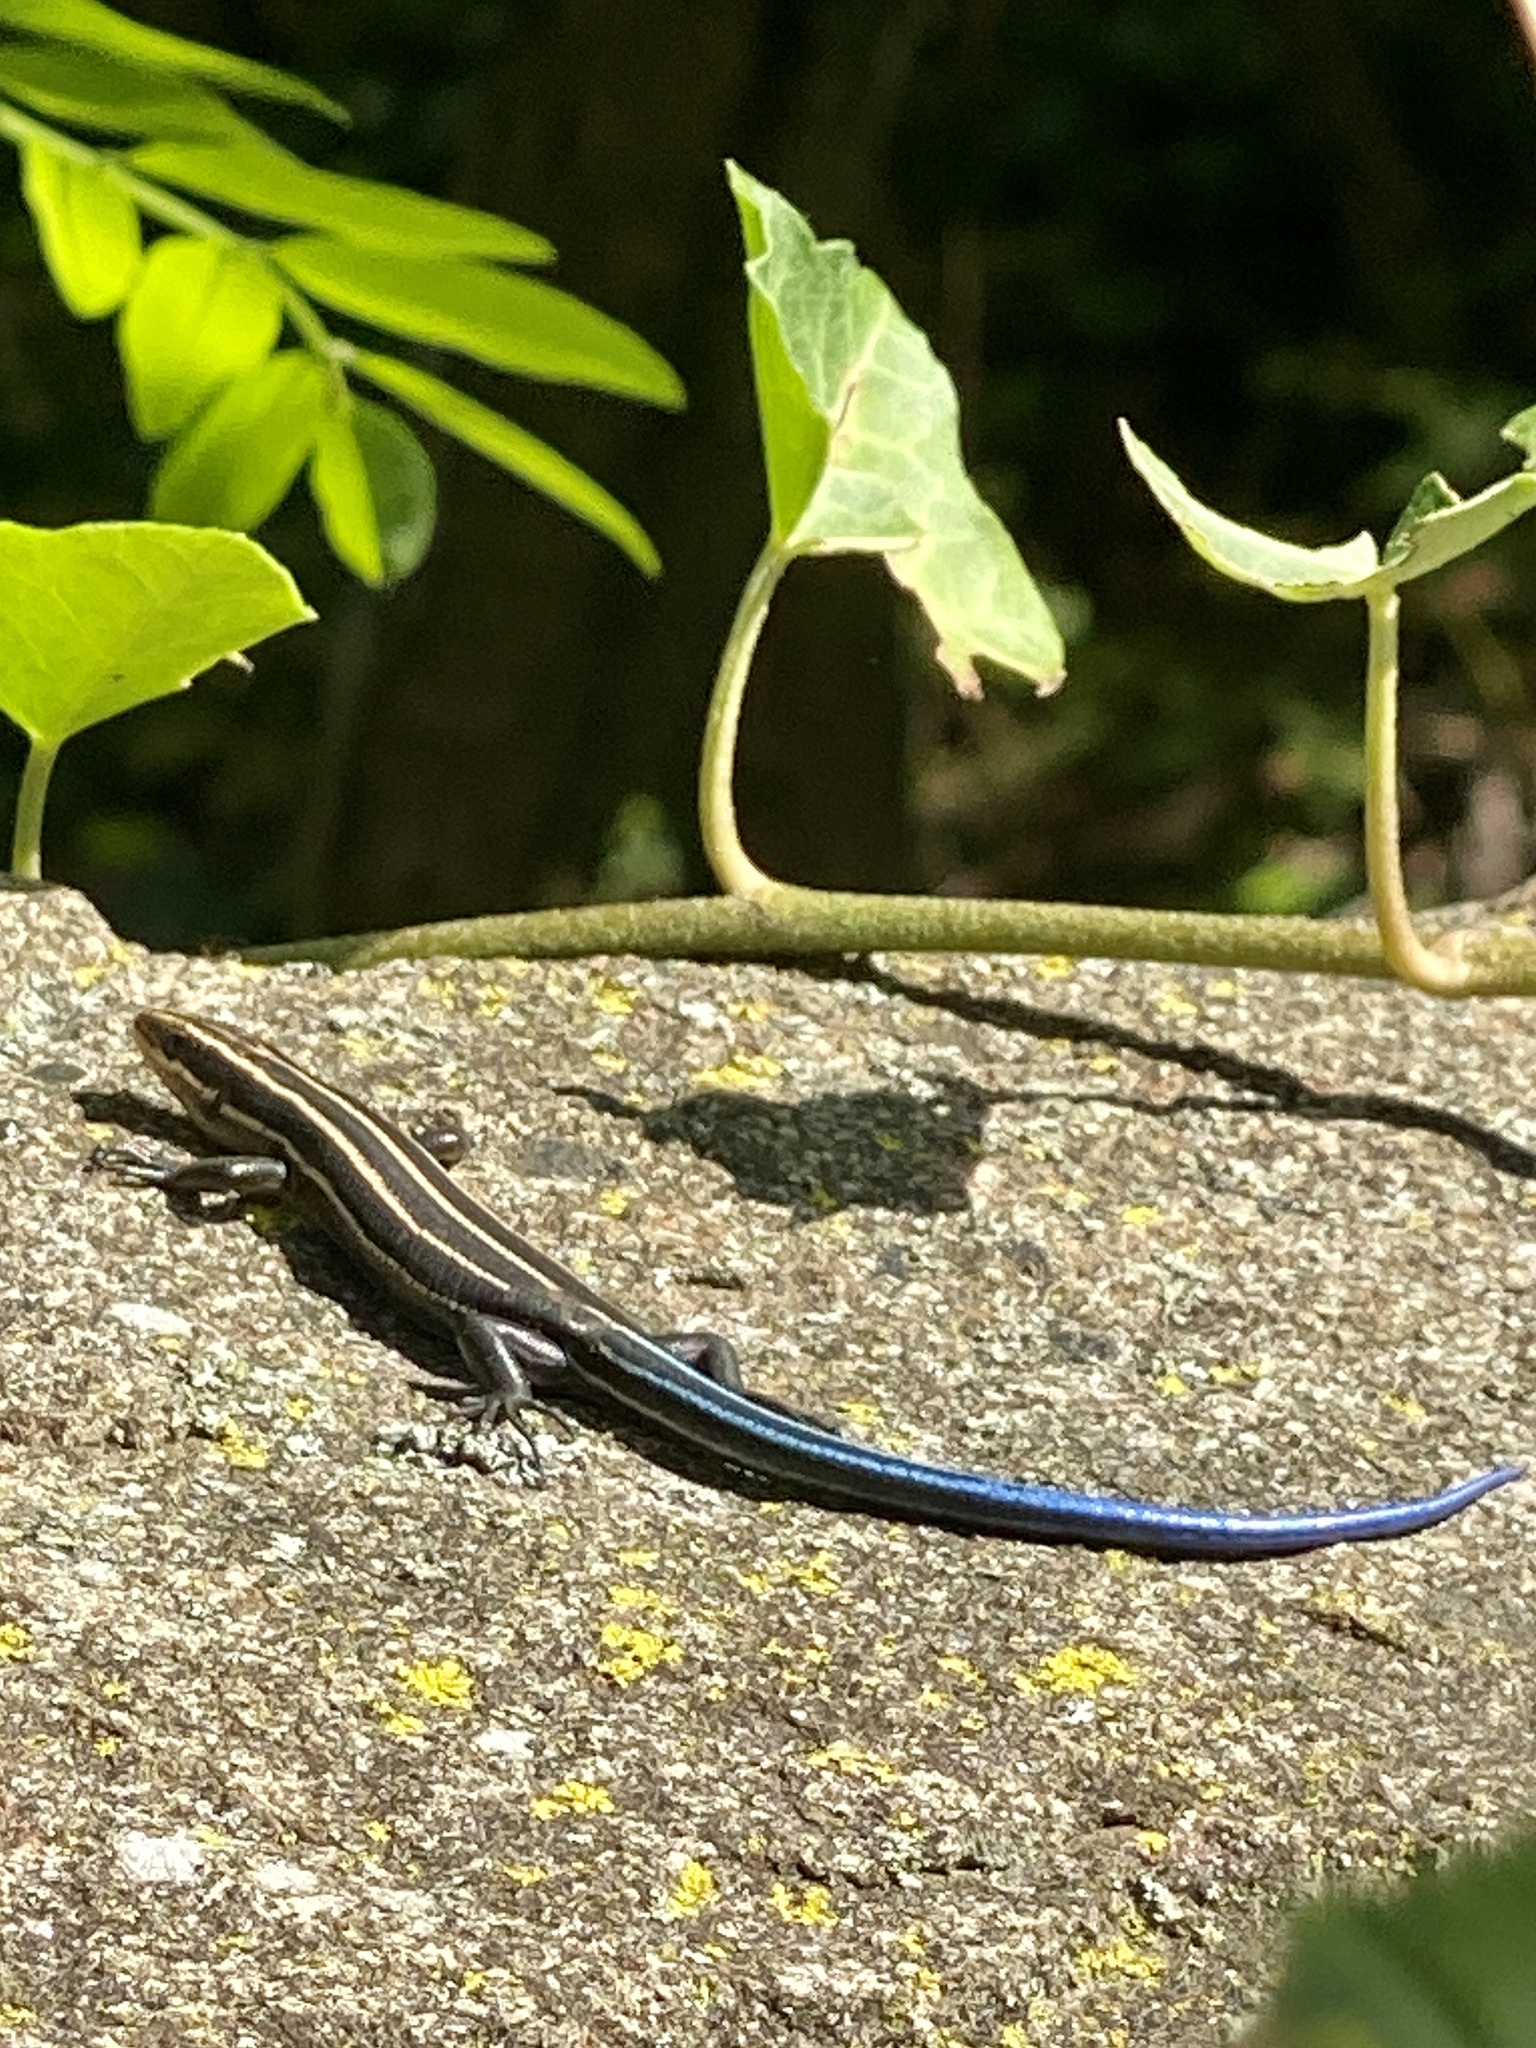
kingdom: Animalia
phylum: Chordata
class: Squamata
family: Scincidae
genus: Plestiodon
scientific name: Plestiodon fasciatus
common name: Five-lined skink
